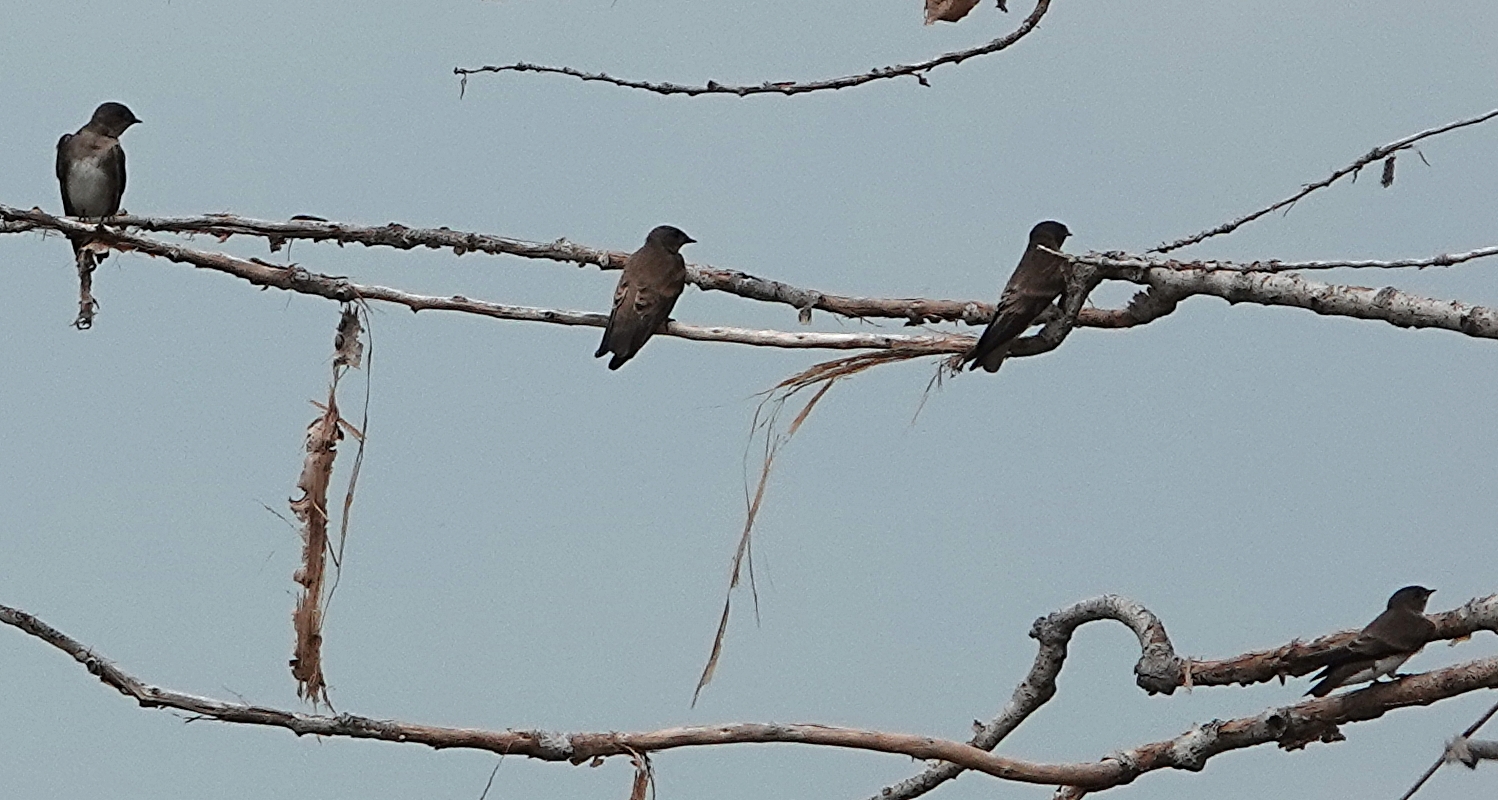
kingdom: Animalia
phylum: Chordata
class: Aves
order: Passeriformes
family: Hirundinidae
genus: Stelgidopteryx
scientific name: Stelgidopteryx serripennis
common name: Northern rough-winged swallow
